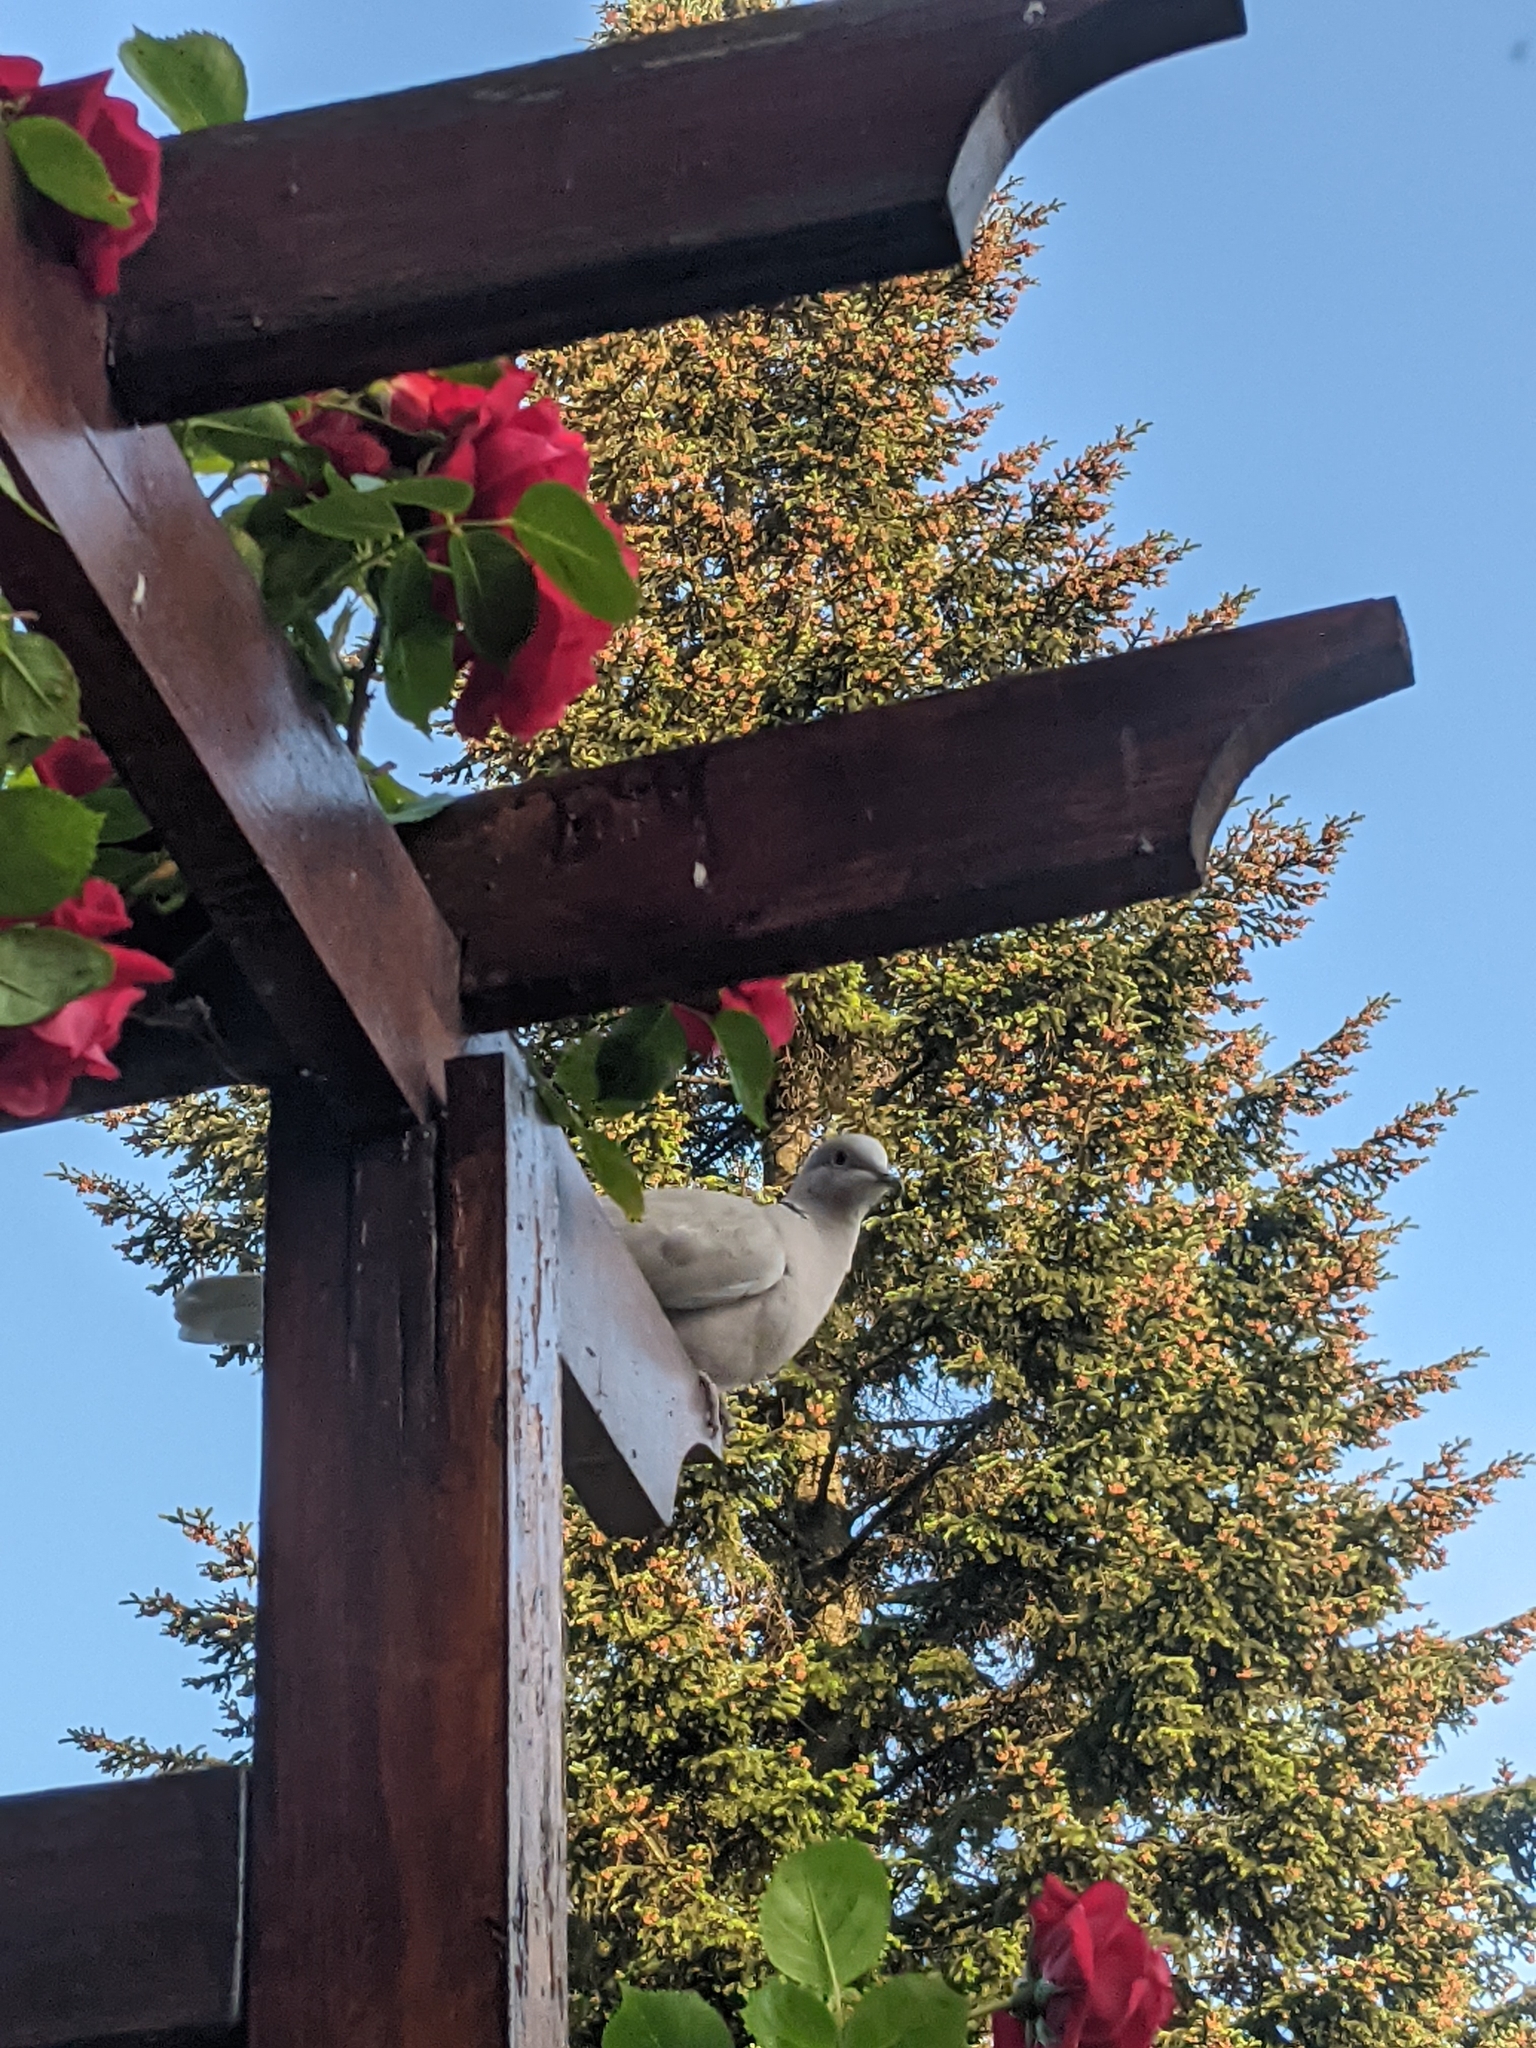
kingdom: Animalia
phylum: Chordata
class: Aves
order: Columbiformes
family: Columbidae
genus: Streptopelia
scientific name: Streptopelia decaocto
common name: Eurasian collared dove
